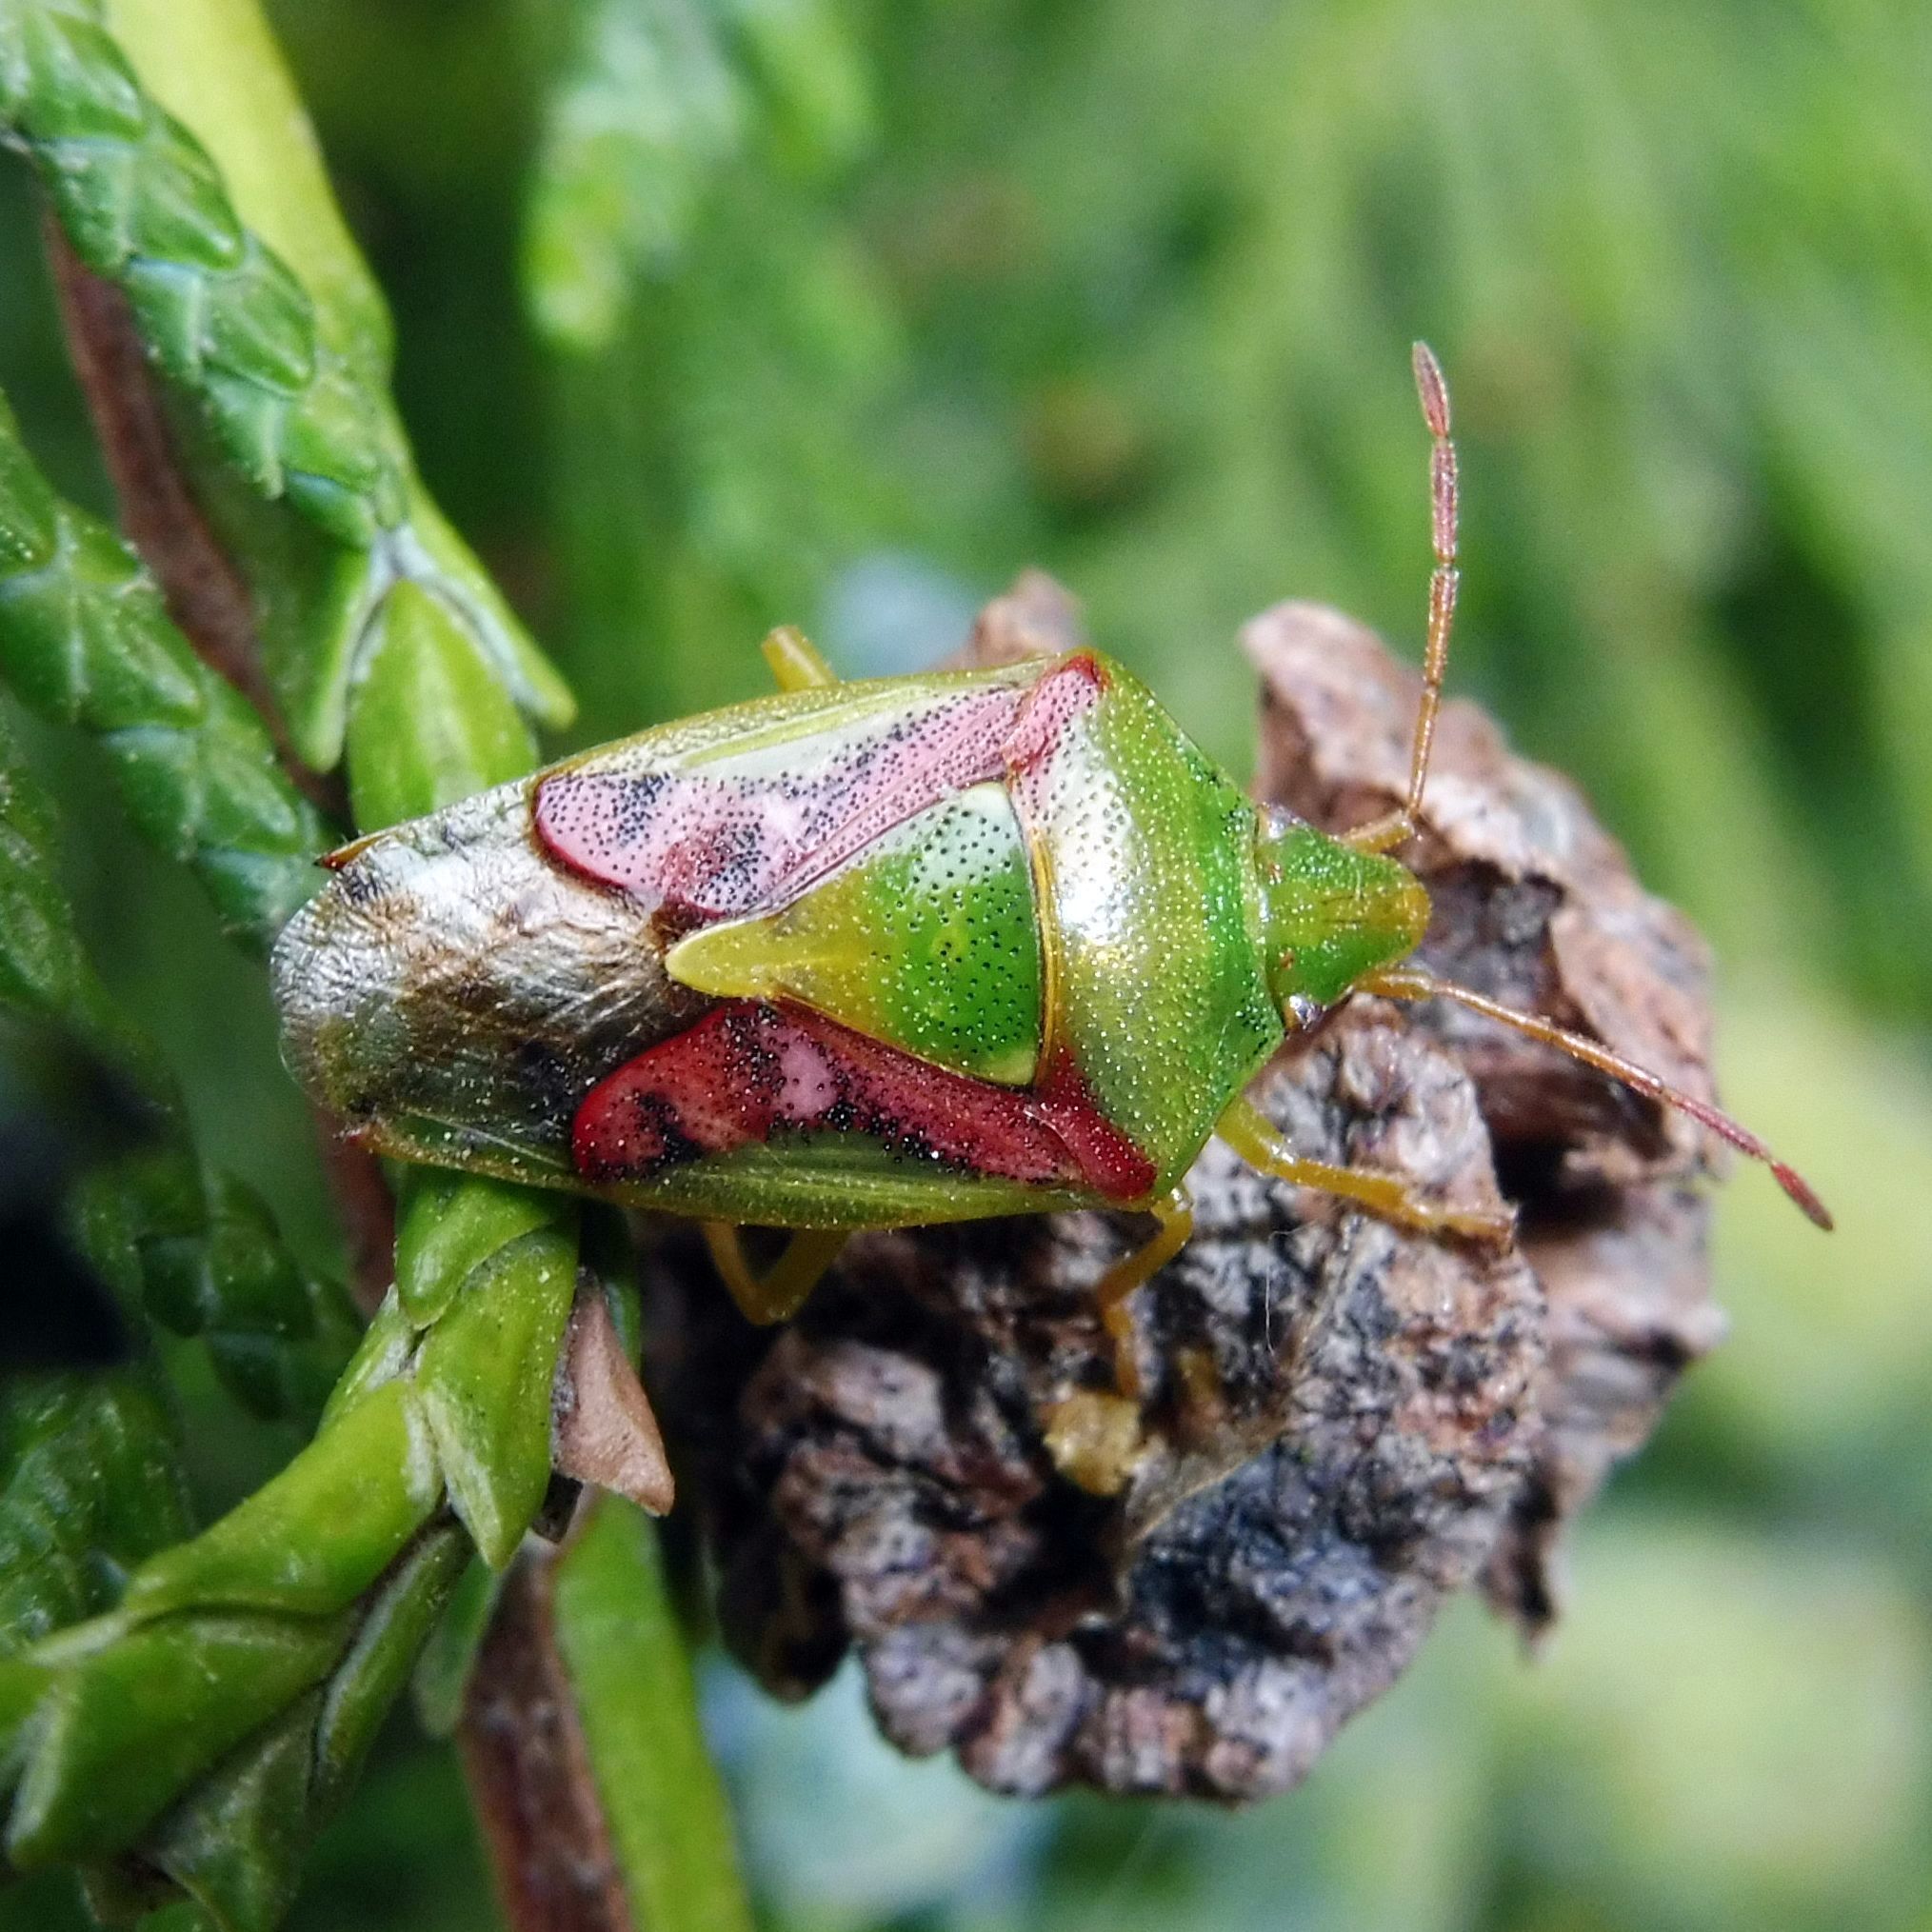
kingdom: Animalia
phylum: Arthropoda
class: Insecta
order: Hemiptera
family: Acanthosomatidae
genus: Cyphostethus
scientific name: Cyphostethus tristriatus
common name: Juniper shieldbug
